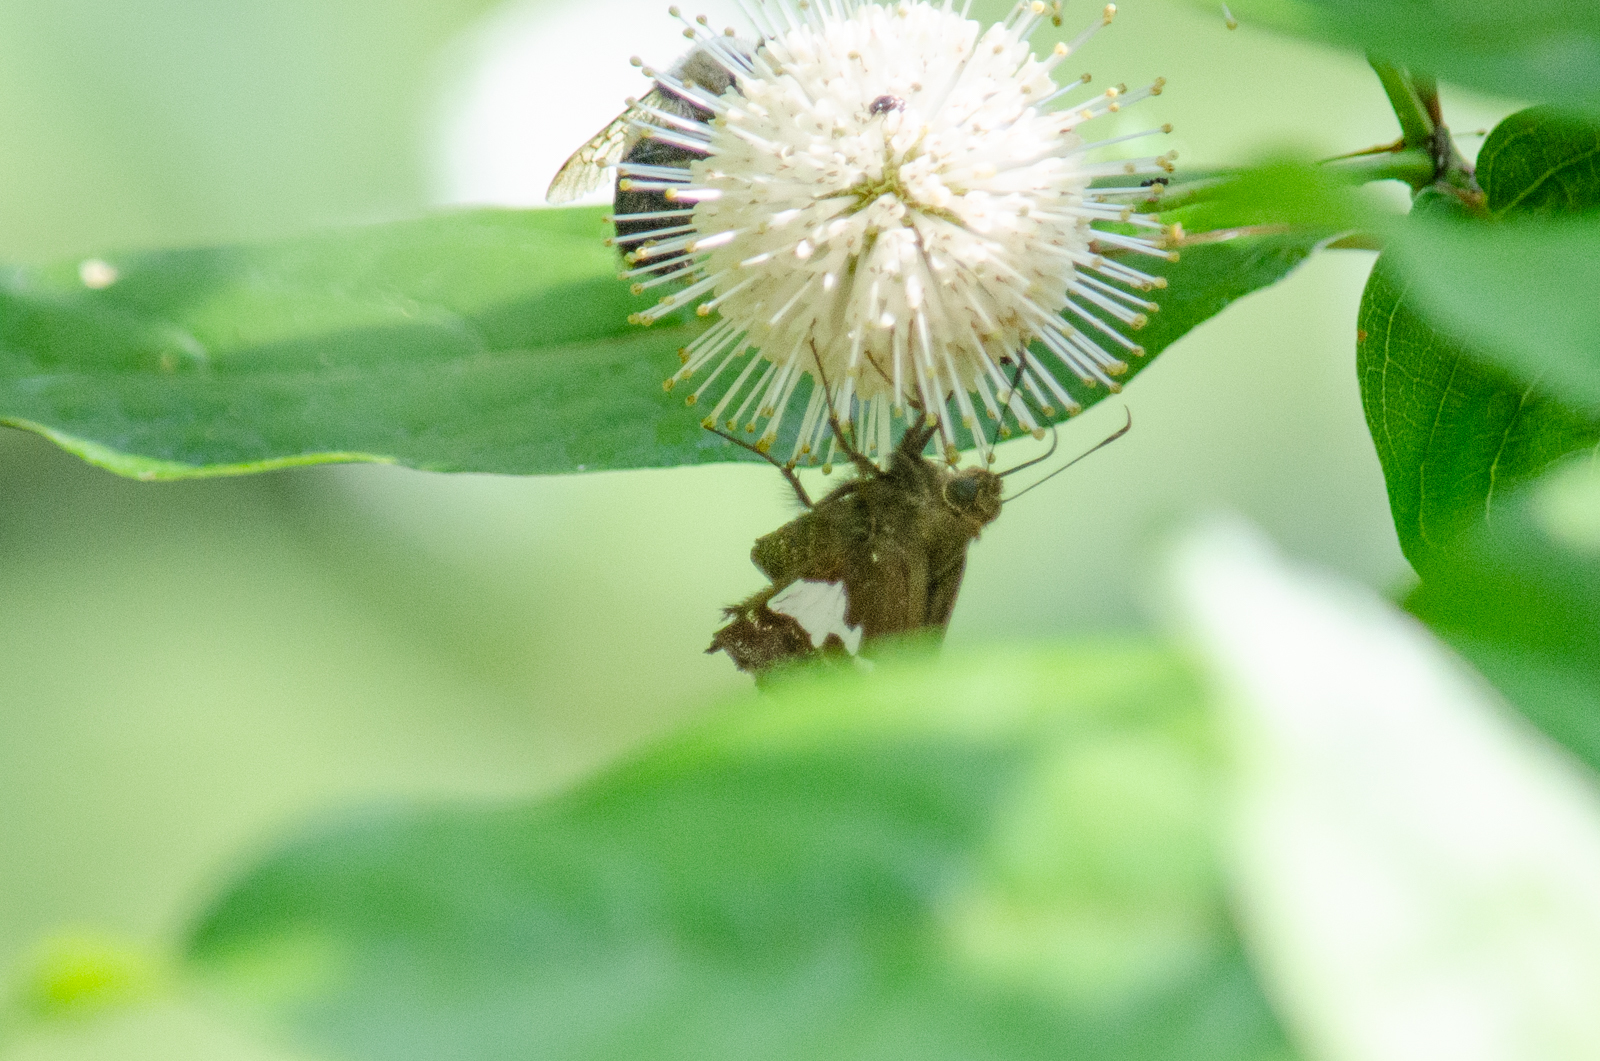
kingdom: Animalia
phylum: Arthropoda
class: Insecta
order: Lepidoptera
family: Hesperiidae
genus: Epargyreus
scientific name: Epargyreus clarus
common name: Silver-spotted skipper
